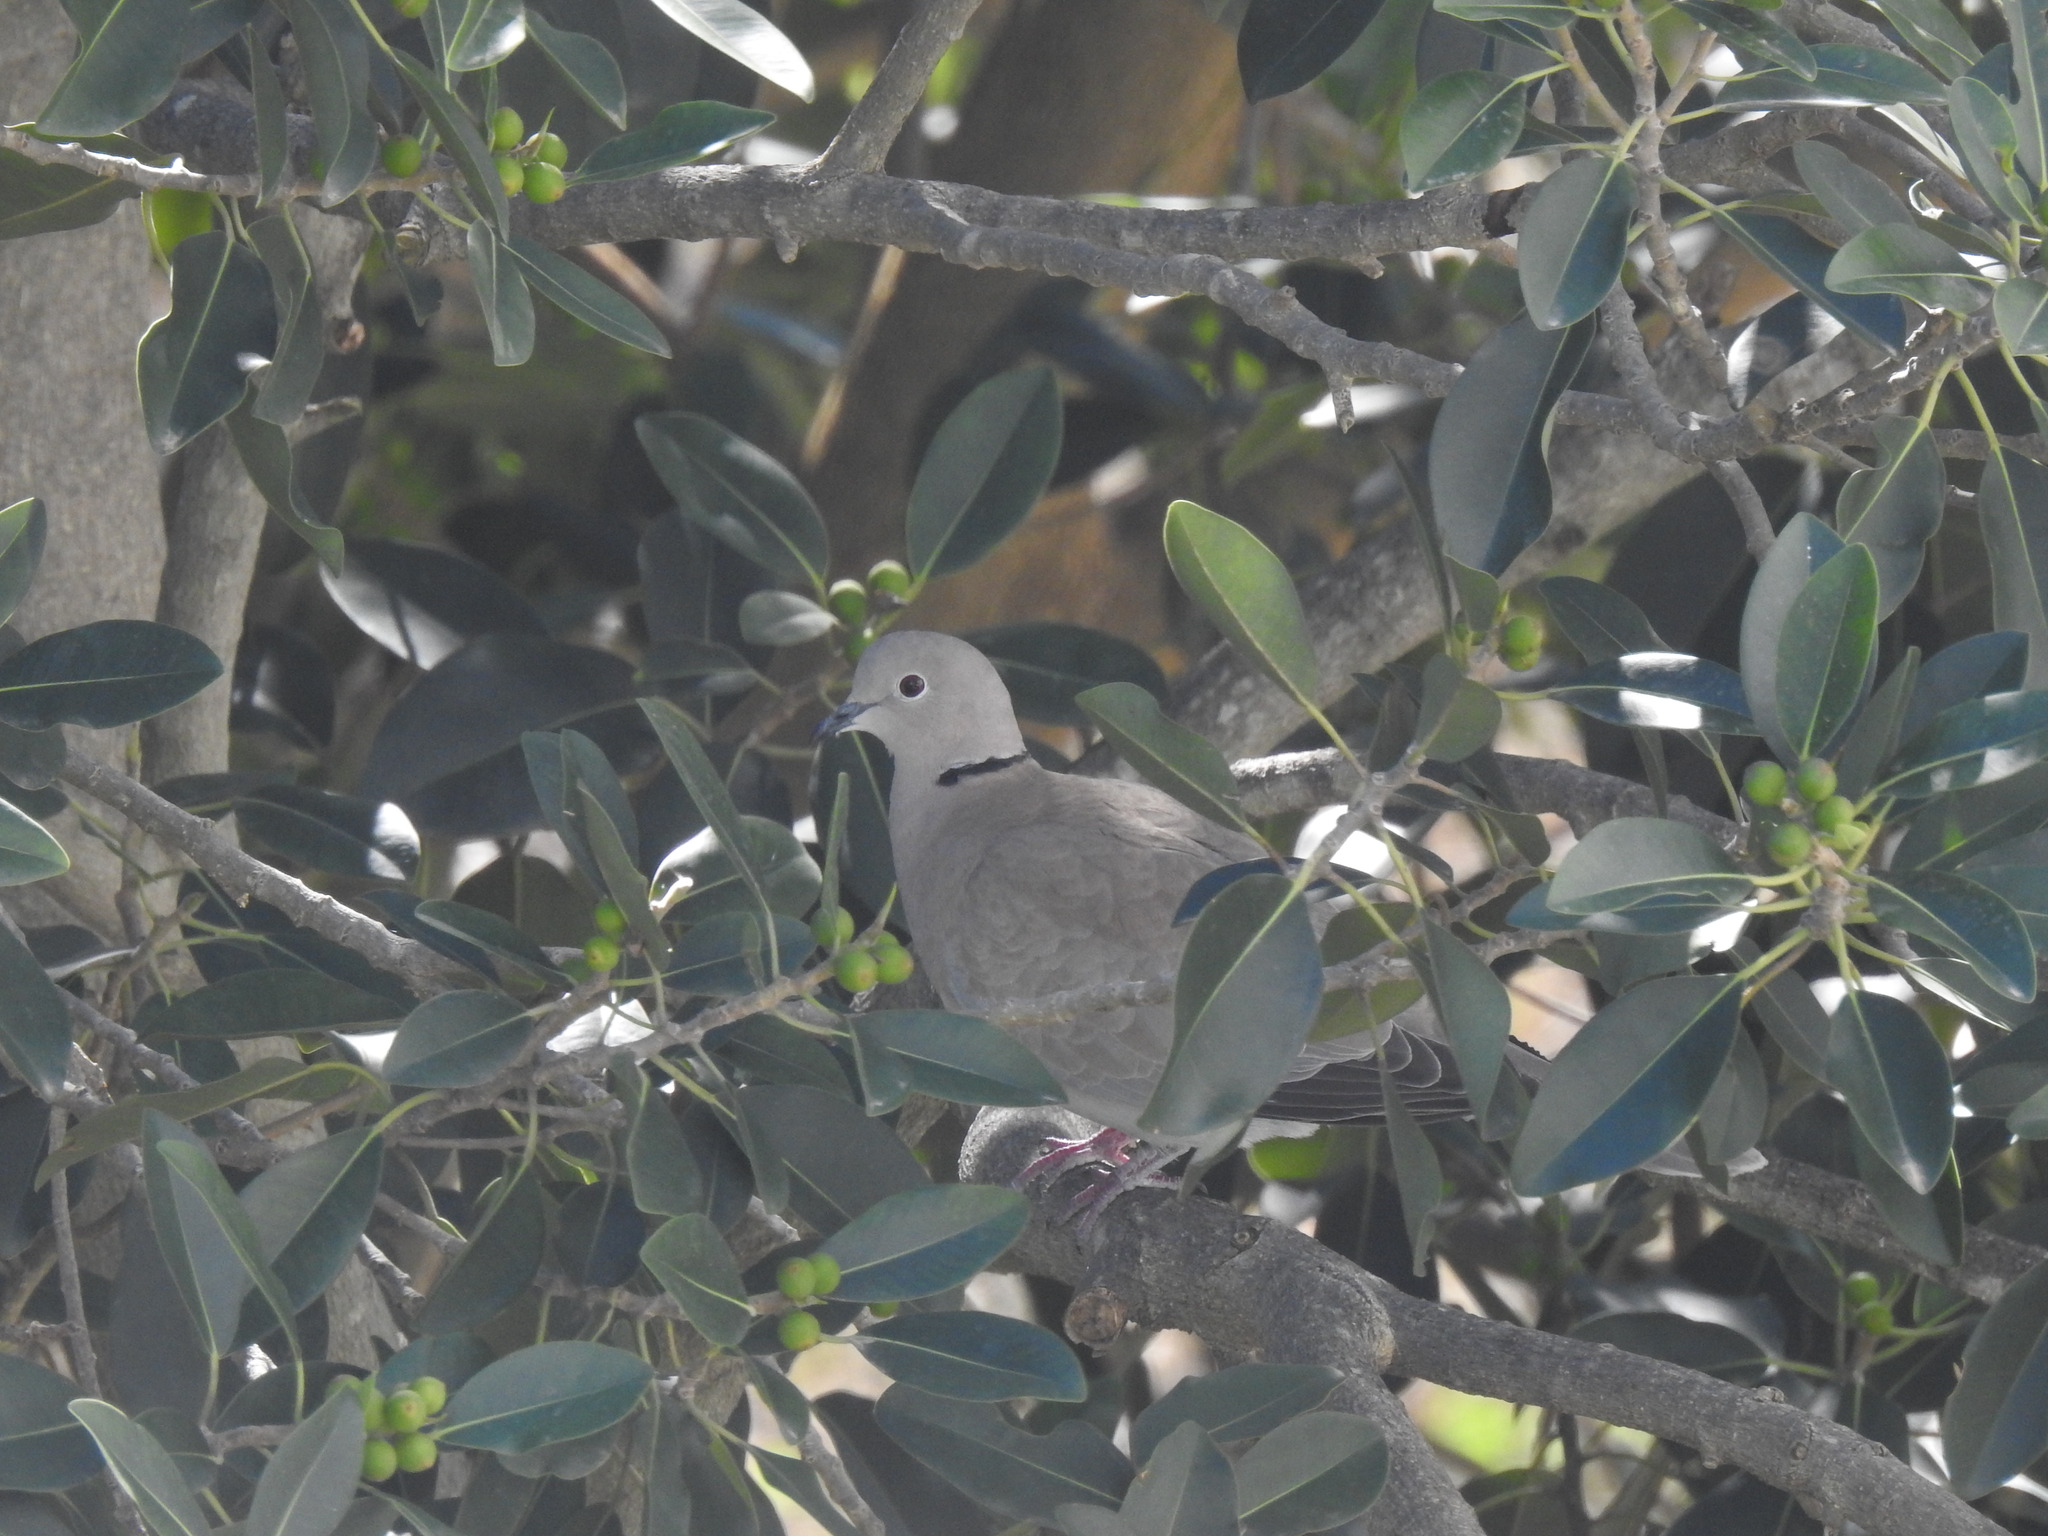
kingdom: Animalia
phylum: Chordata
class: Aves
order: Columbiformes
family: Columbidae
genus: Streptopelia
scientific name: Streptopelia decaocto
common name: Eurasian collared dove
